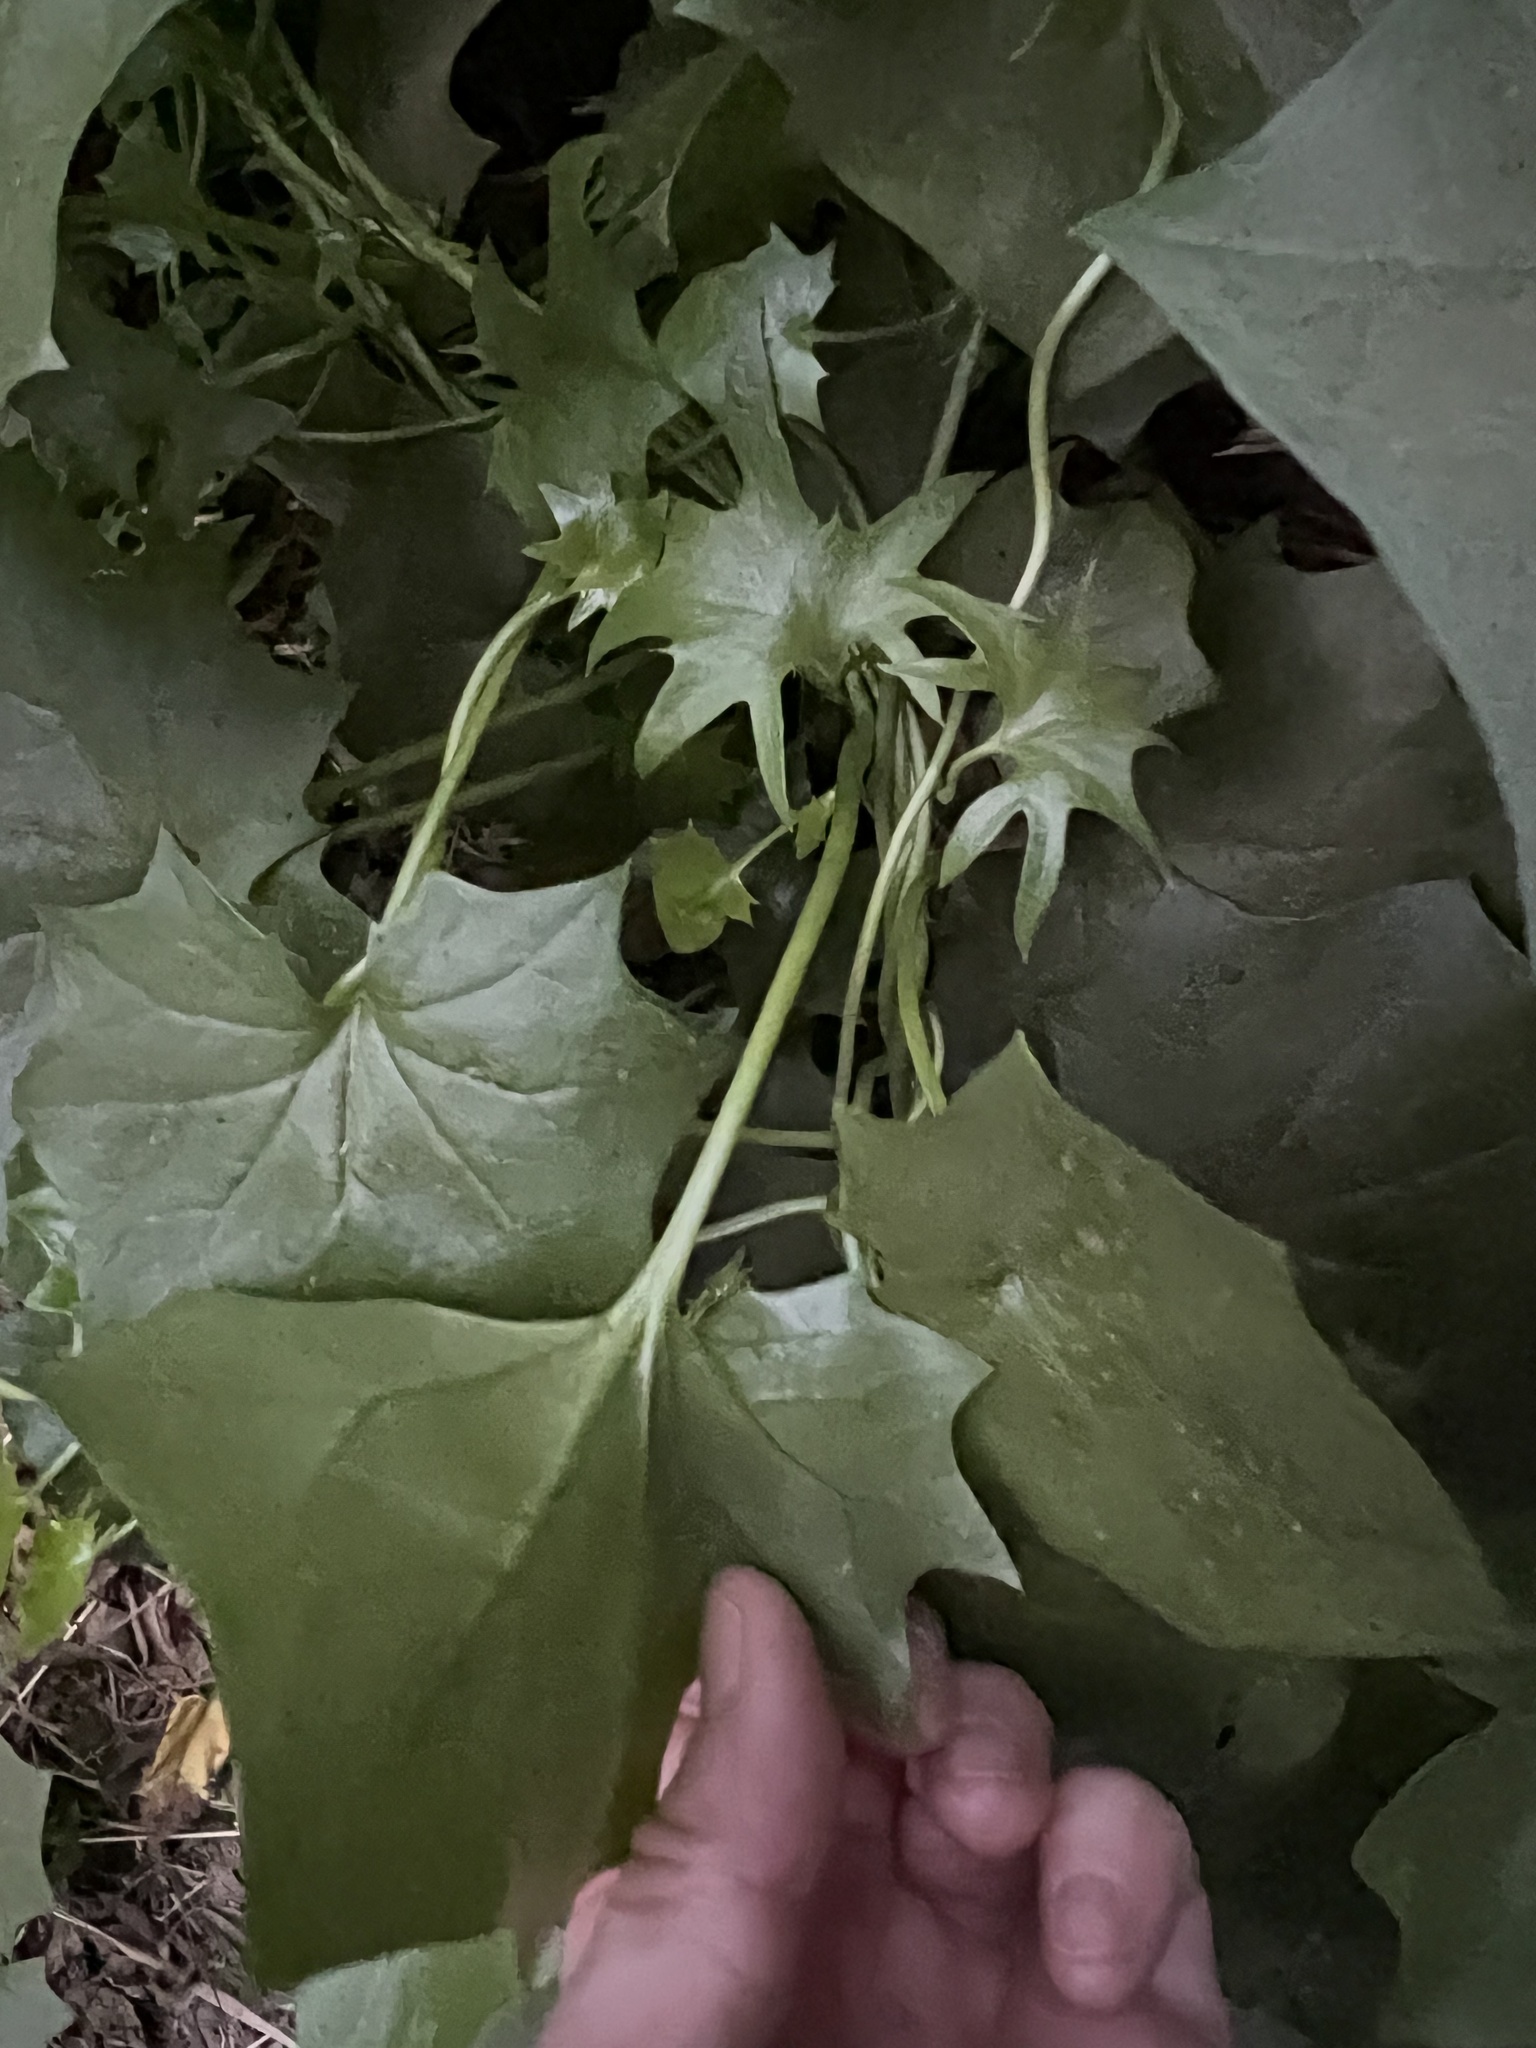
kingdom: Plantae
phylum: Tracheophyta
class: Magnoliopsida
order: Asterales
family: Asteraceae
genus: Delairea
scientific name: Delairea odorata
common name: Cape-ivy
